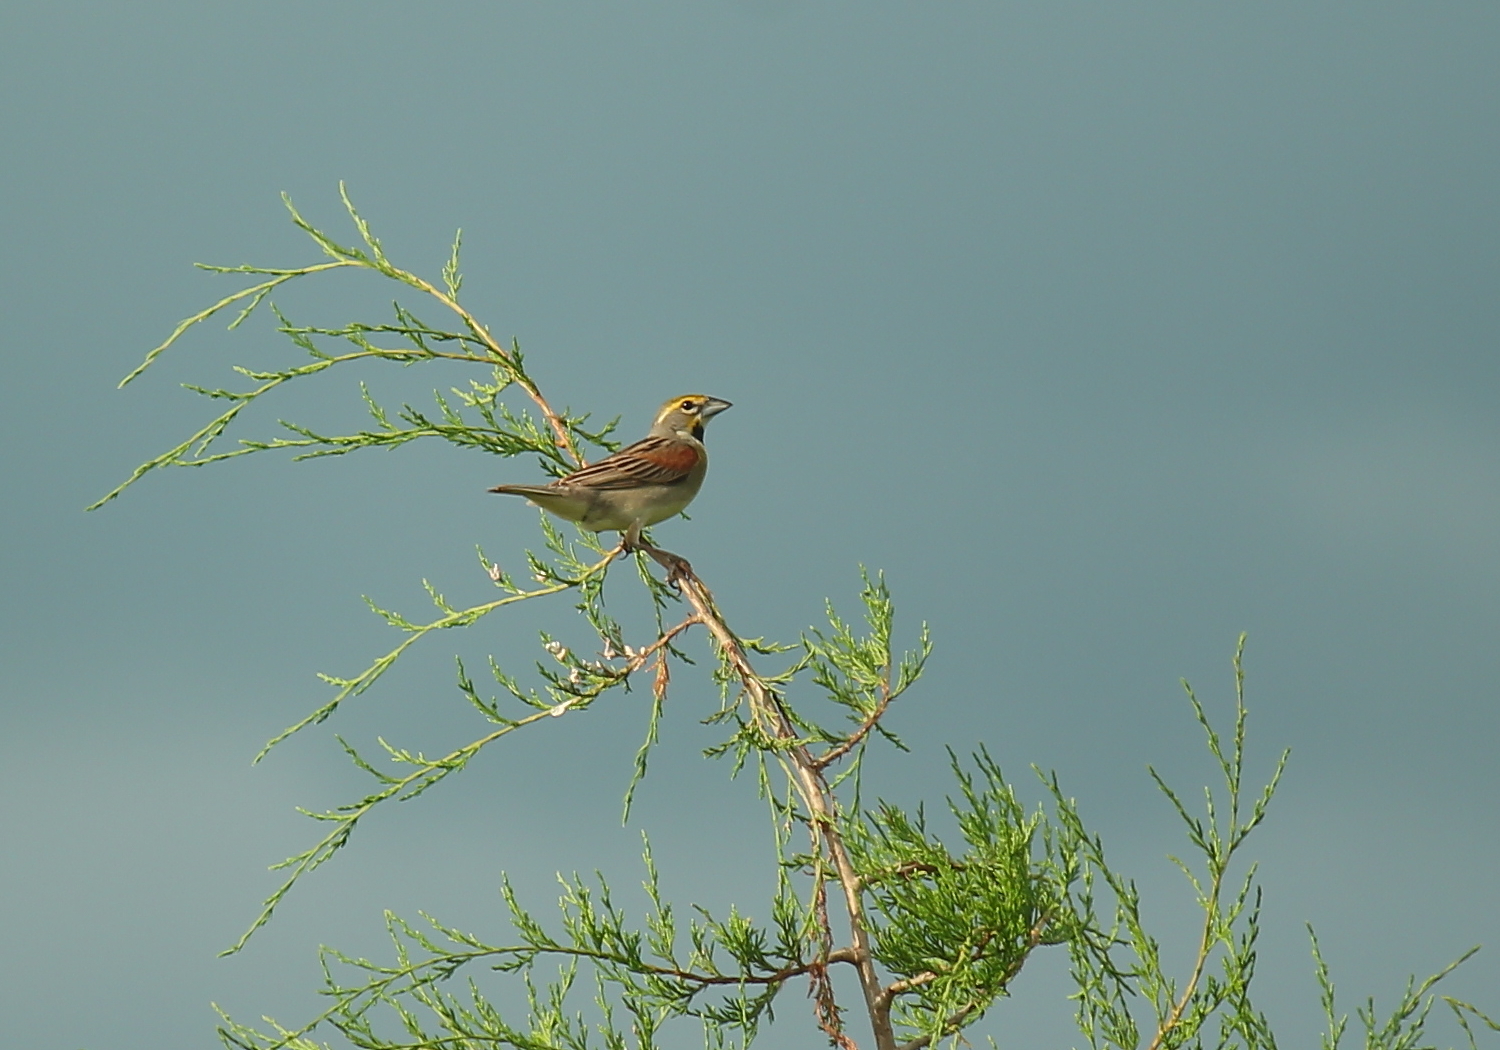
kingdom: Animalia
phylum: Chordata
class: Aves
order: Passeriformes
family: Cardinalidae
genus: Spiza
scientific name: Spiza americana
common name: Dickcissel
